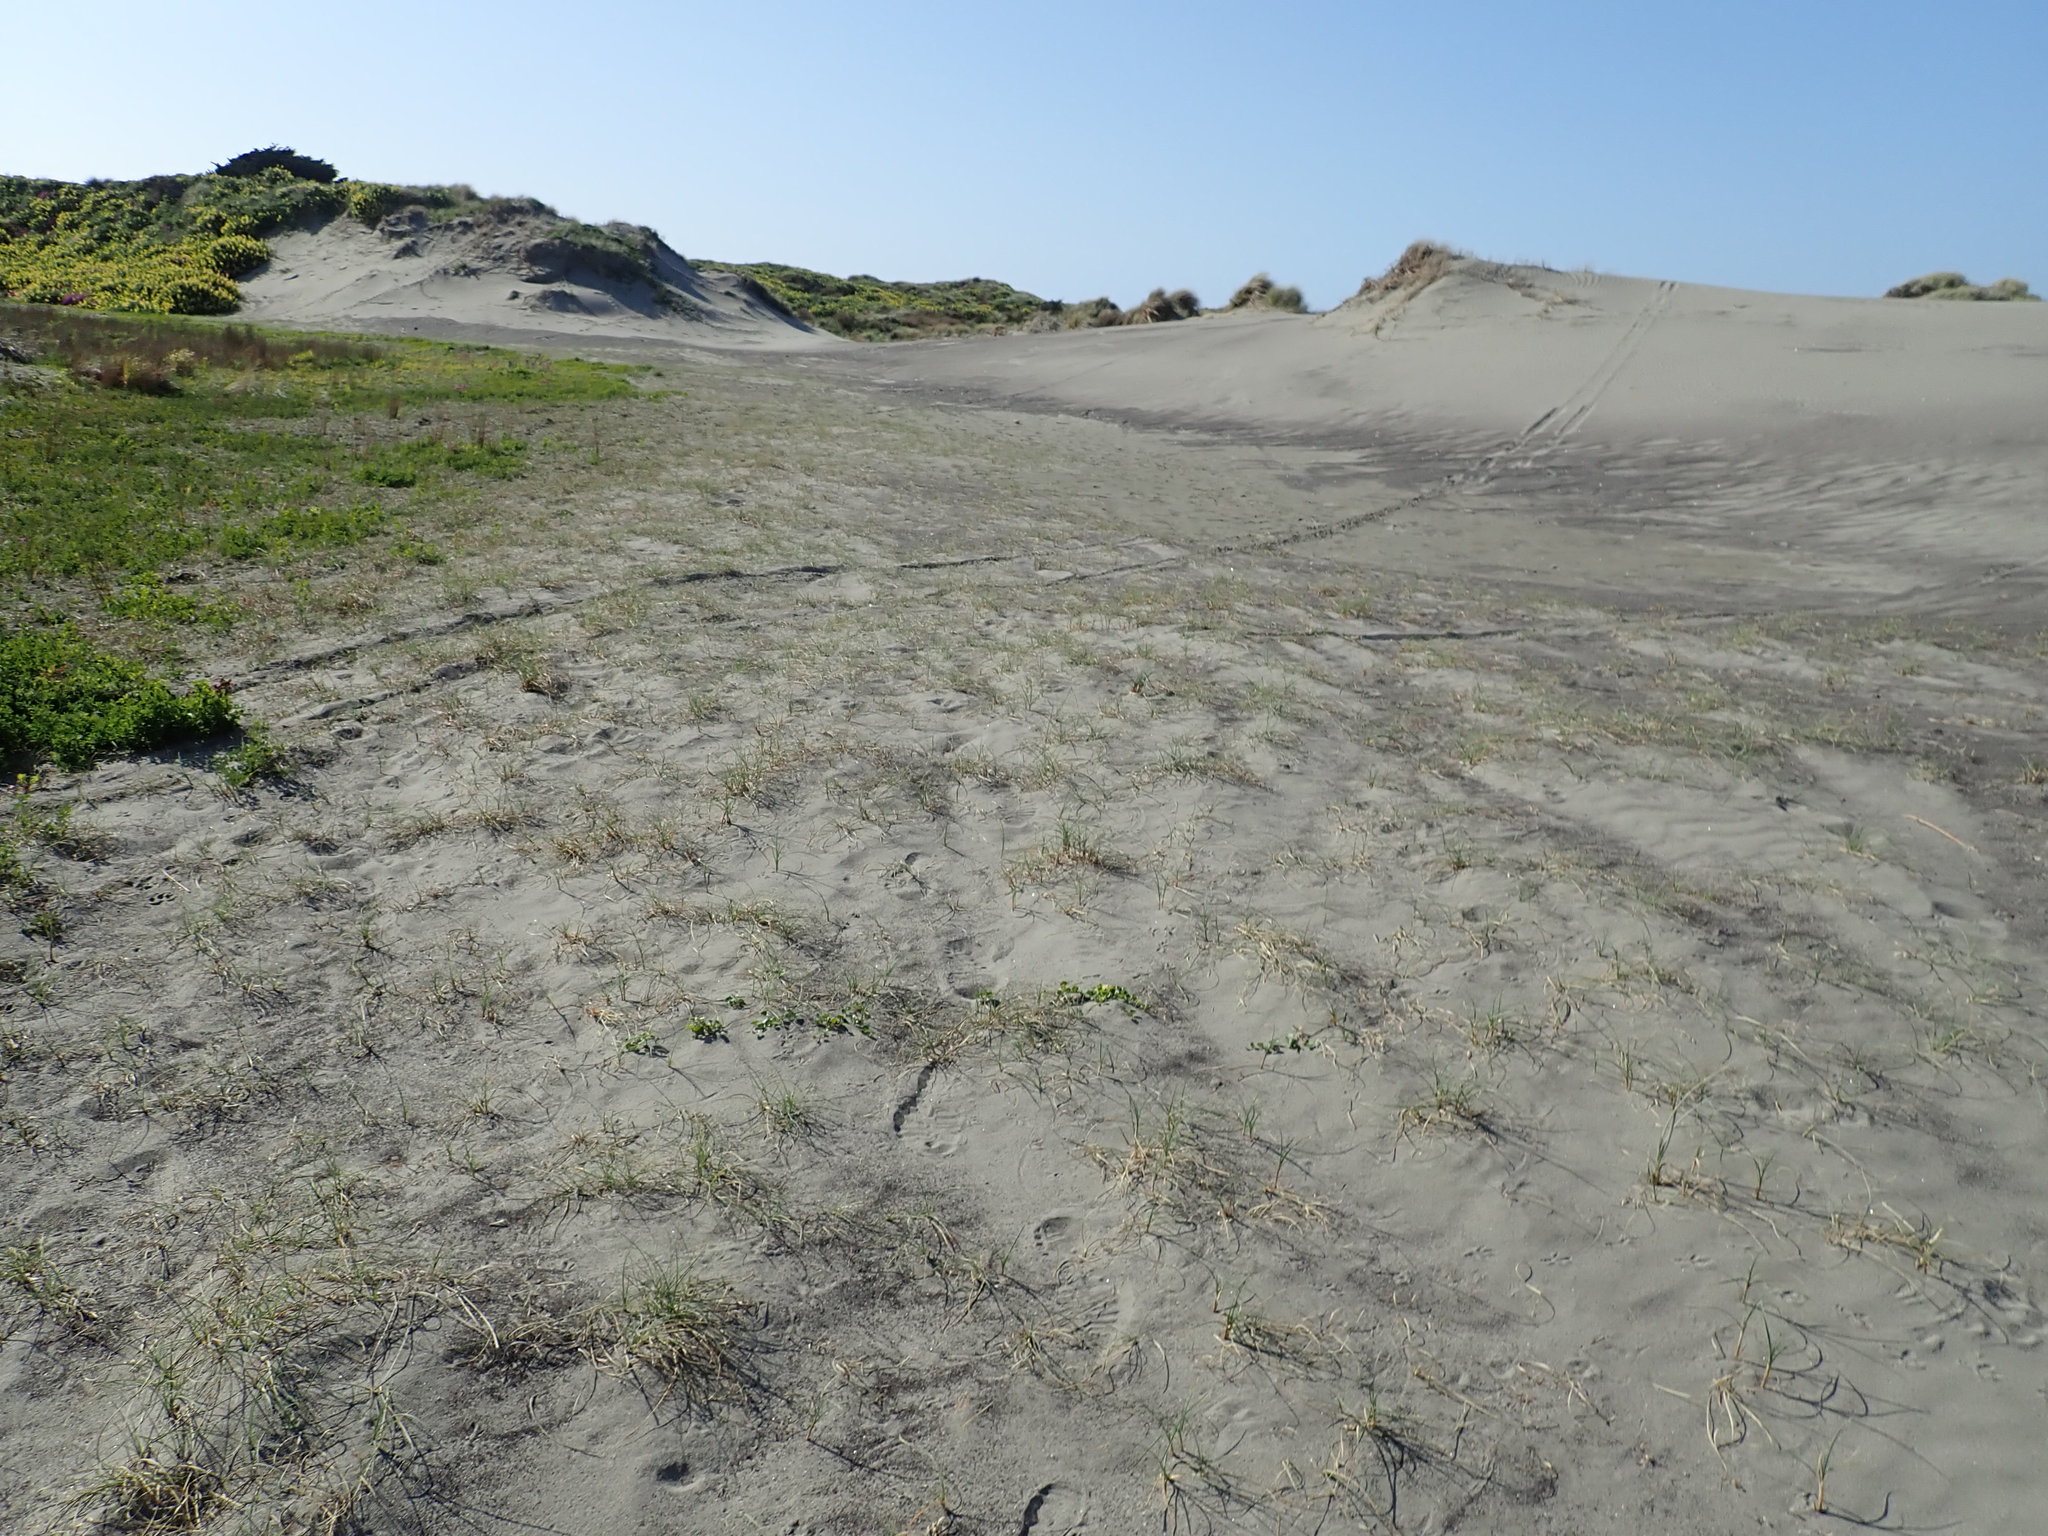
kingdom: Plantae
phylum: Tracheophyta
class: Liliopsida
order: Poales
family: Cyperaceae
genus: Carex
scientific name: Carex pumila
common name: Dwarf sedge
